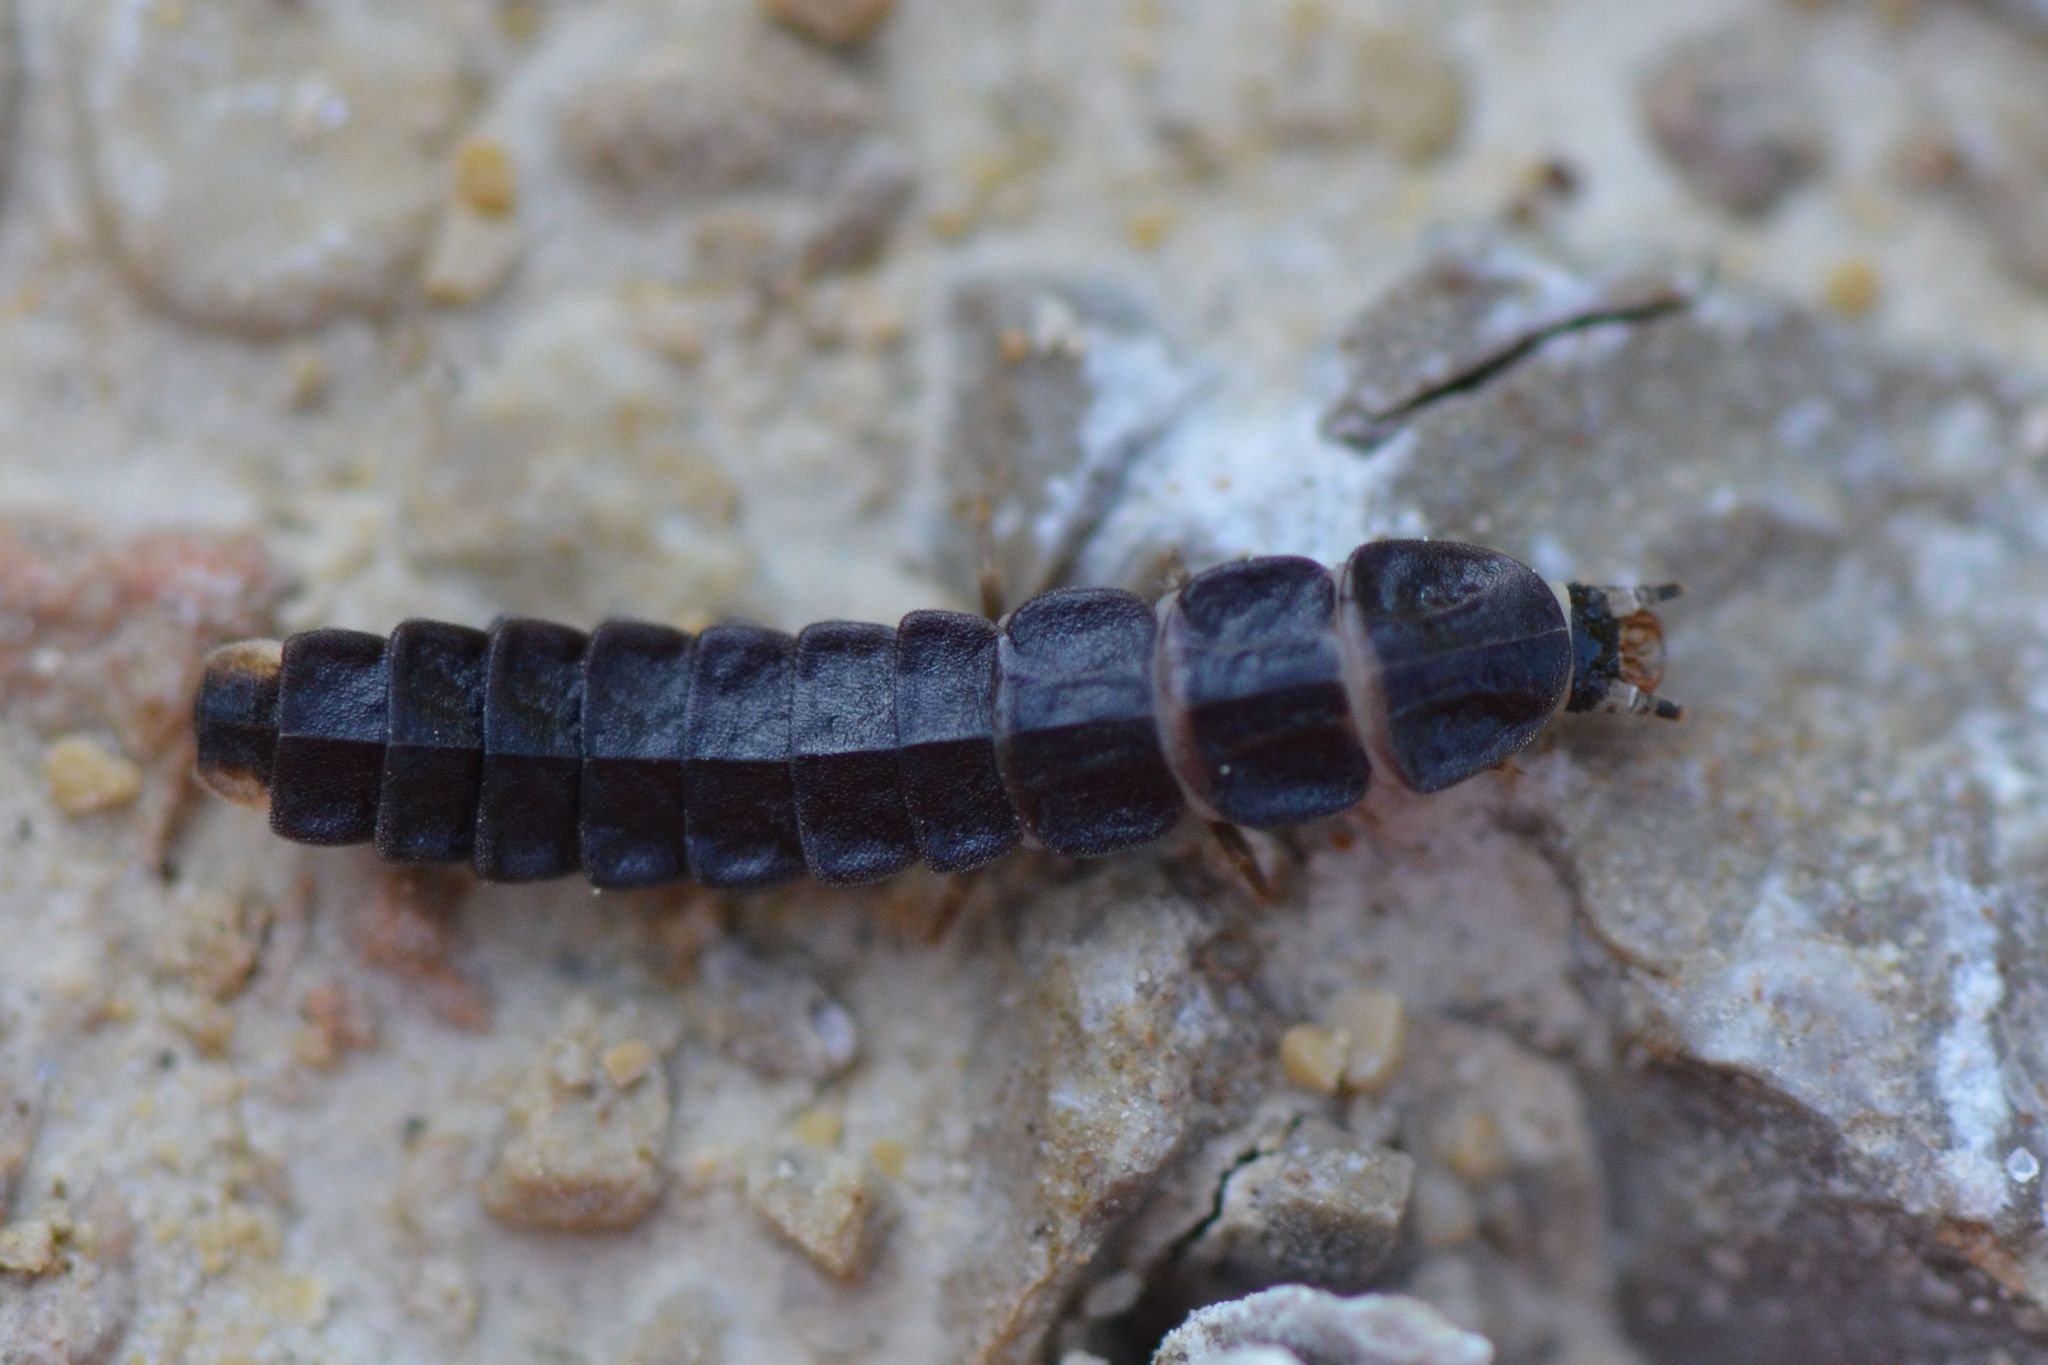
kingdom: Animalia
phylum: Arthropoda
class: Insecta
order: Coleoptera
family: Lampyridae
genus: Phosphaenus
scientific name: Phosphaenus hemipterus
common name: Short-winged firefly
